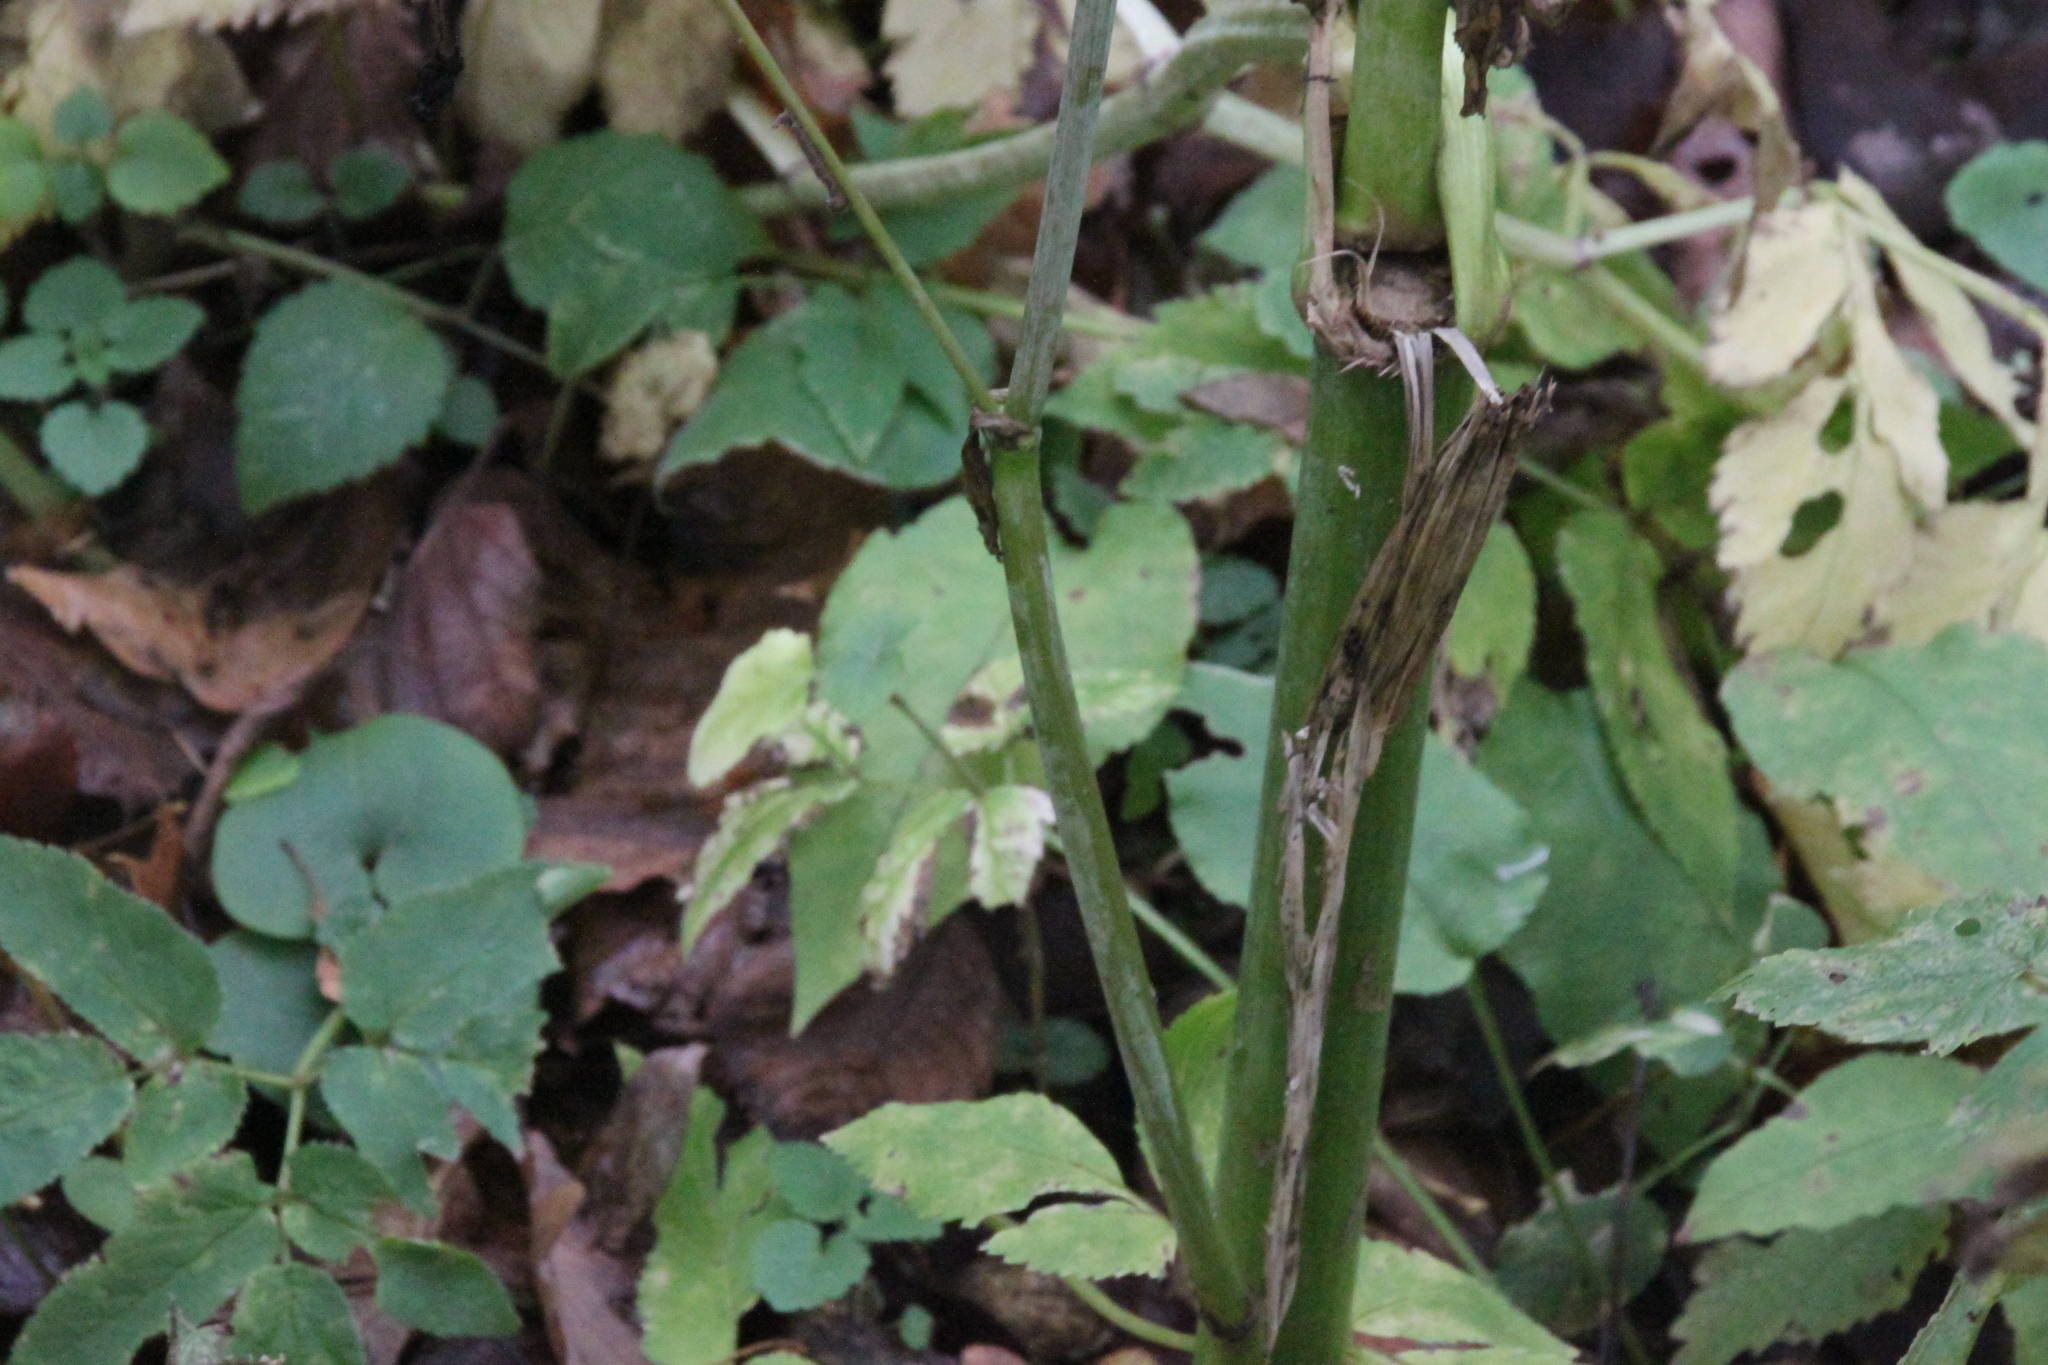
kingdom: Plantae
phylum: Tracheophyta
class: Magnoliopsida
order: Apiales
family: Apiaceae
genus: Angelica
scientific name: Angelica sylvestris
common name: Wild angelica
